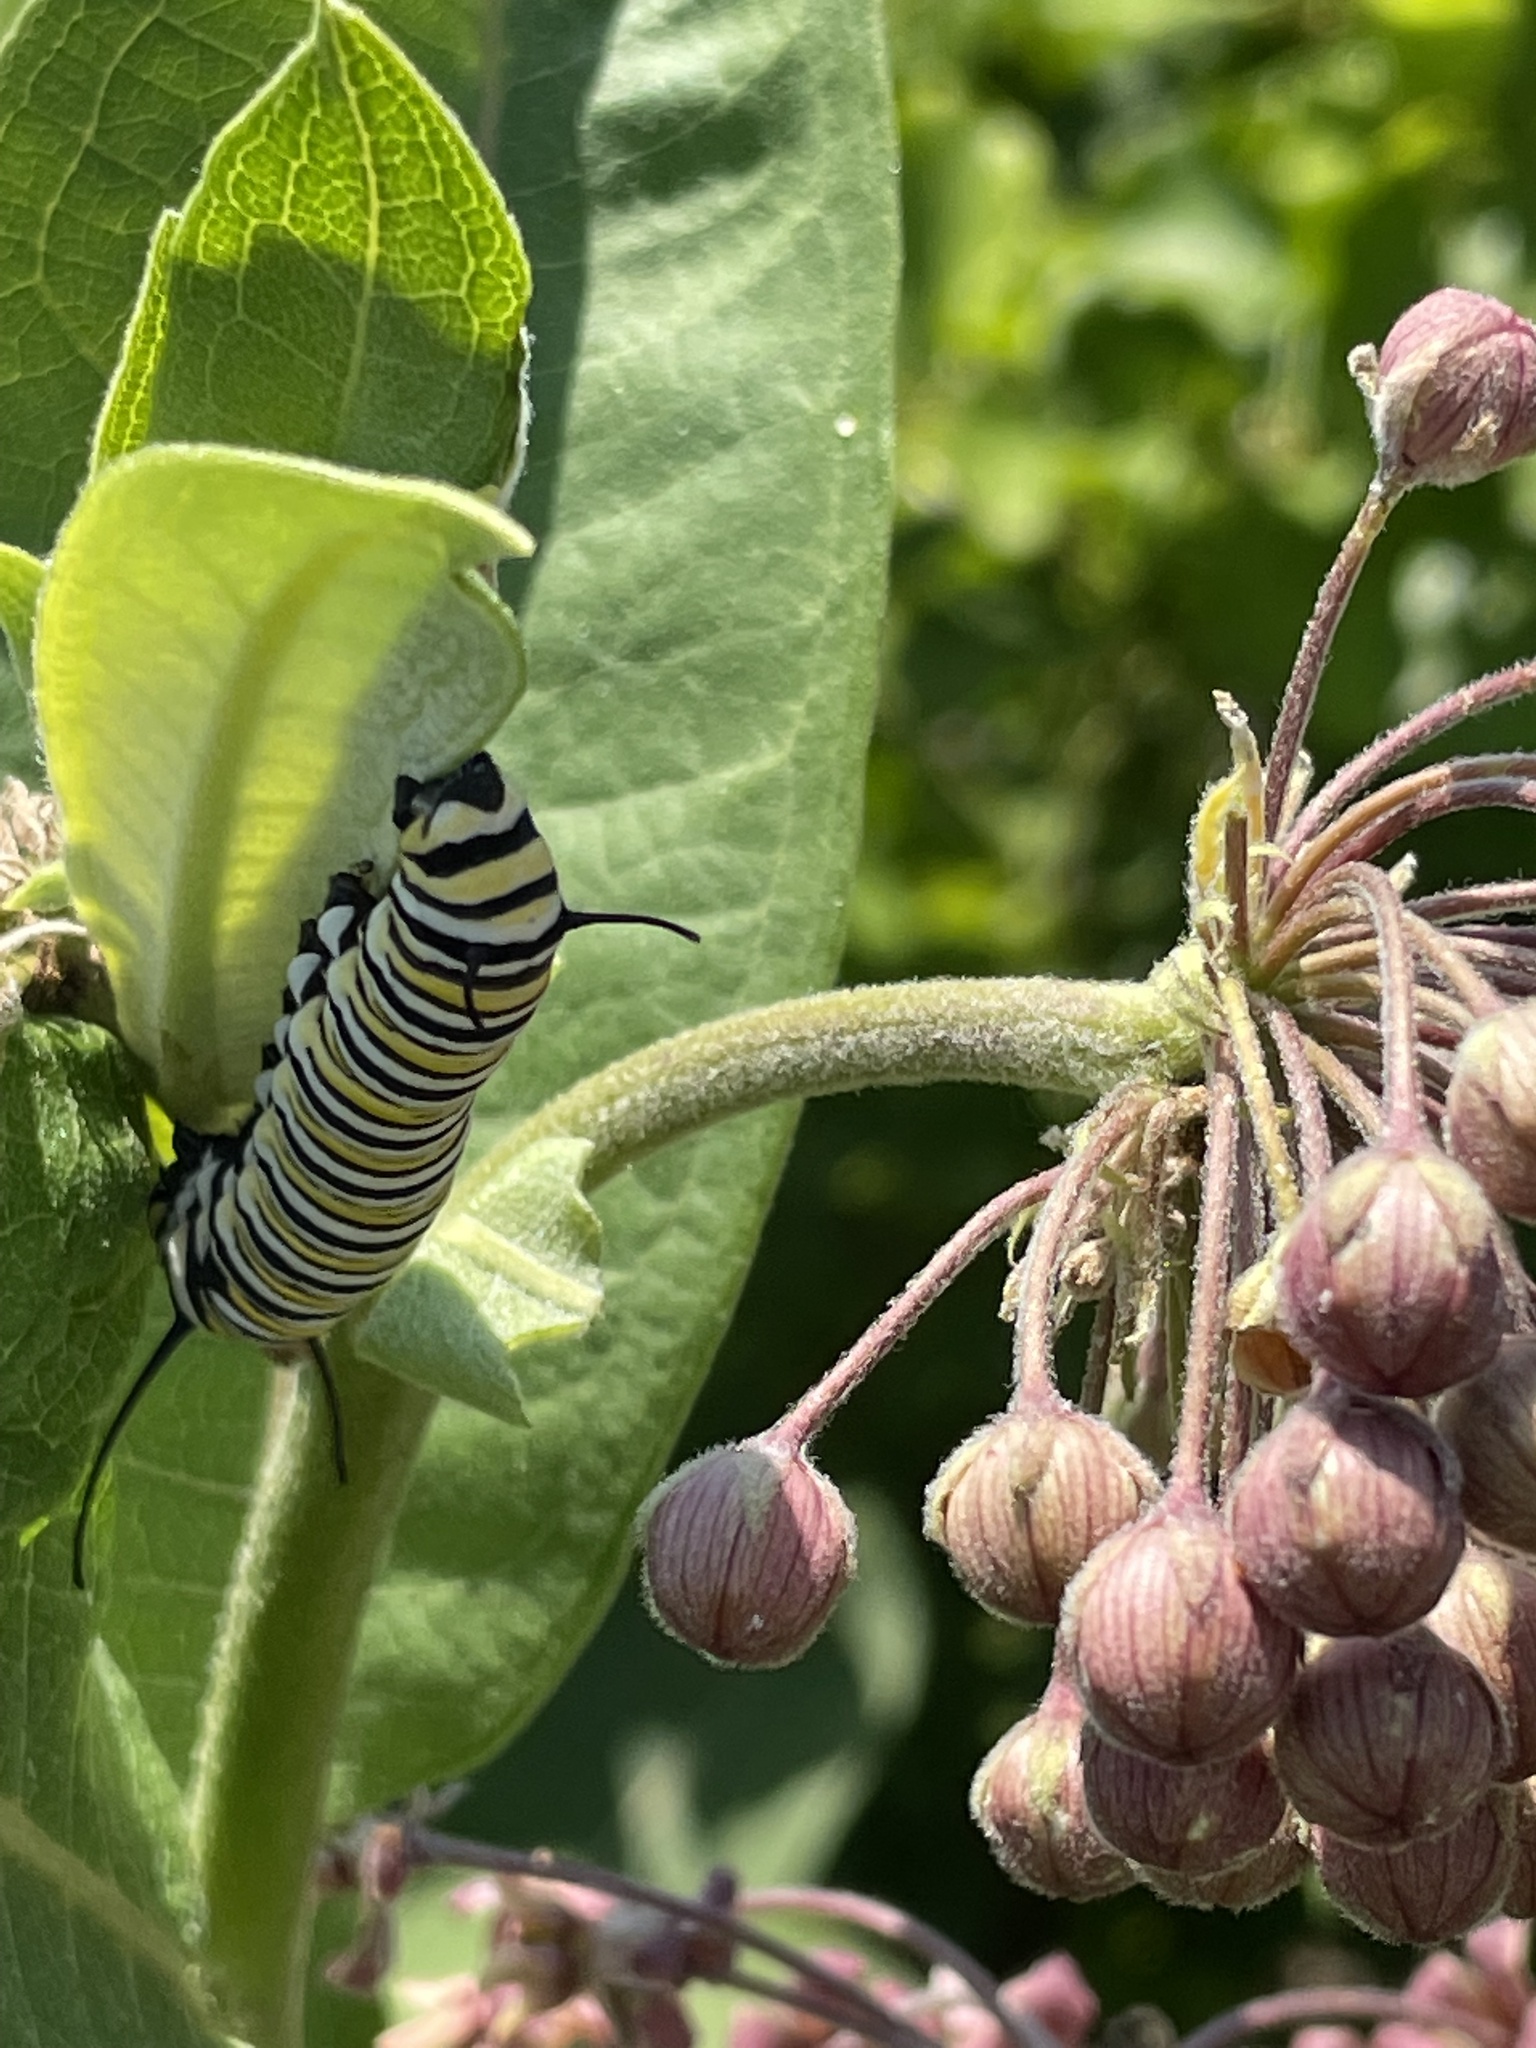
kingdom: Animalia
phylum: Arthropoda
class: Insecta
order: Lepidoptera
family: Nymphalidae
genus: Danaus
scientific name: Danaus plexippus
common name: Monarch
